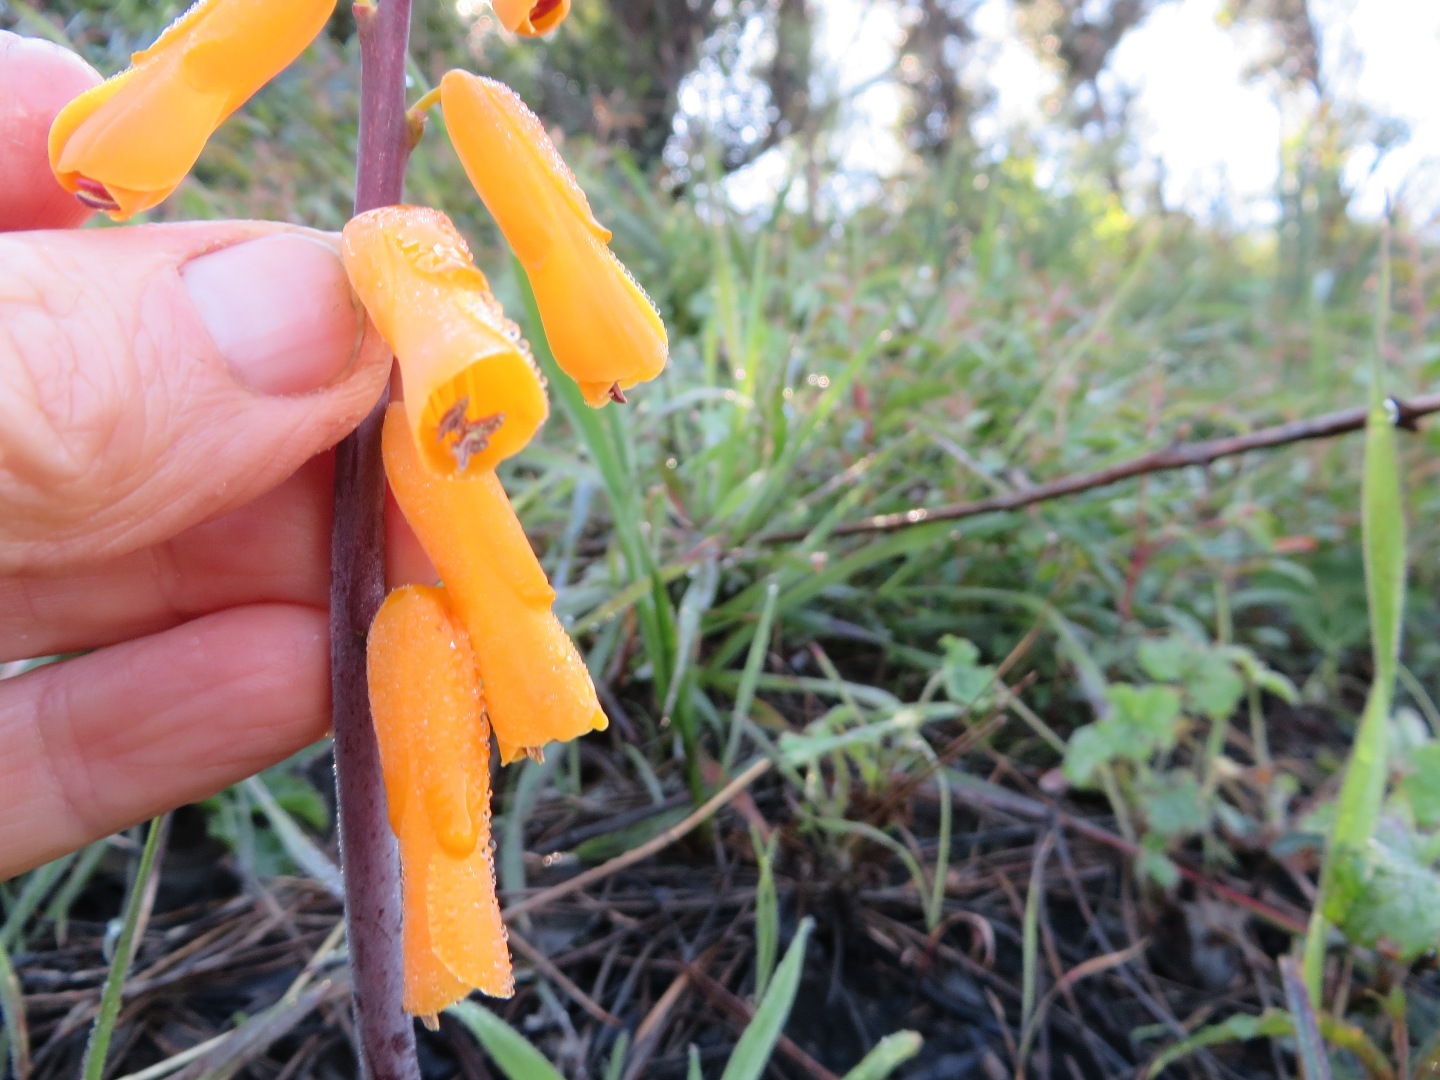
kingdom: Plantae
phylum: Tracheophyta
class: Liliopsida
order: Asparagales
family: Asparagaceae
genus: Lachenalia
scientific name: Lachenalia flava
